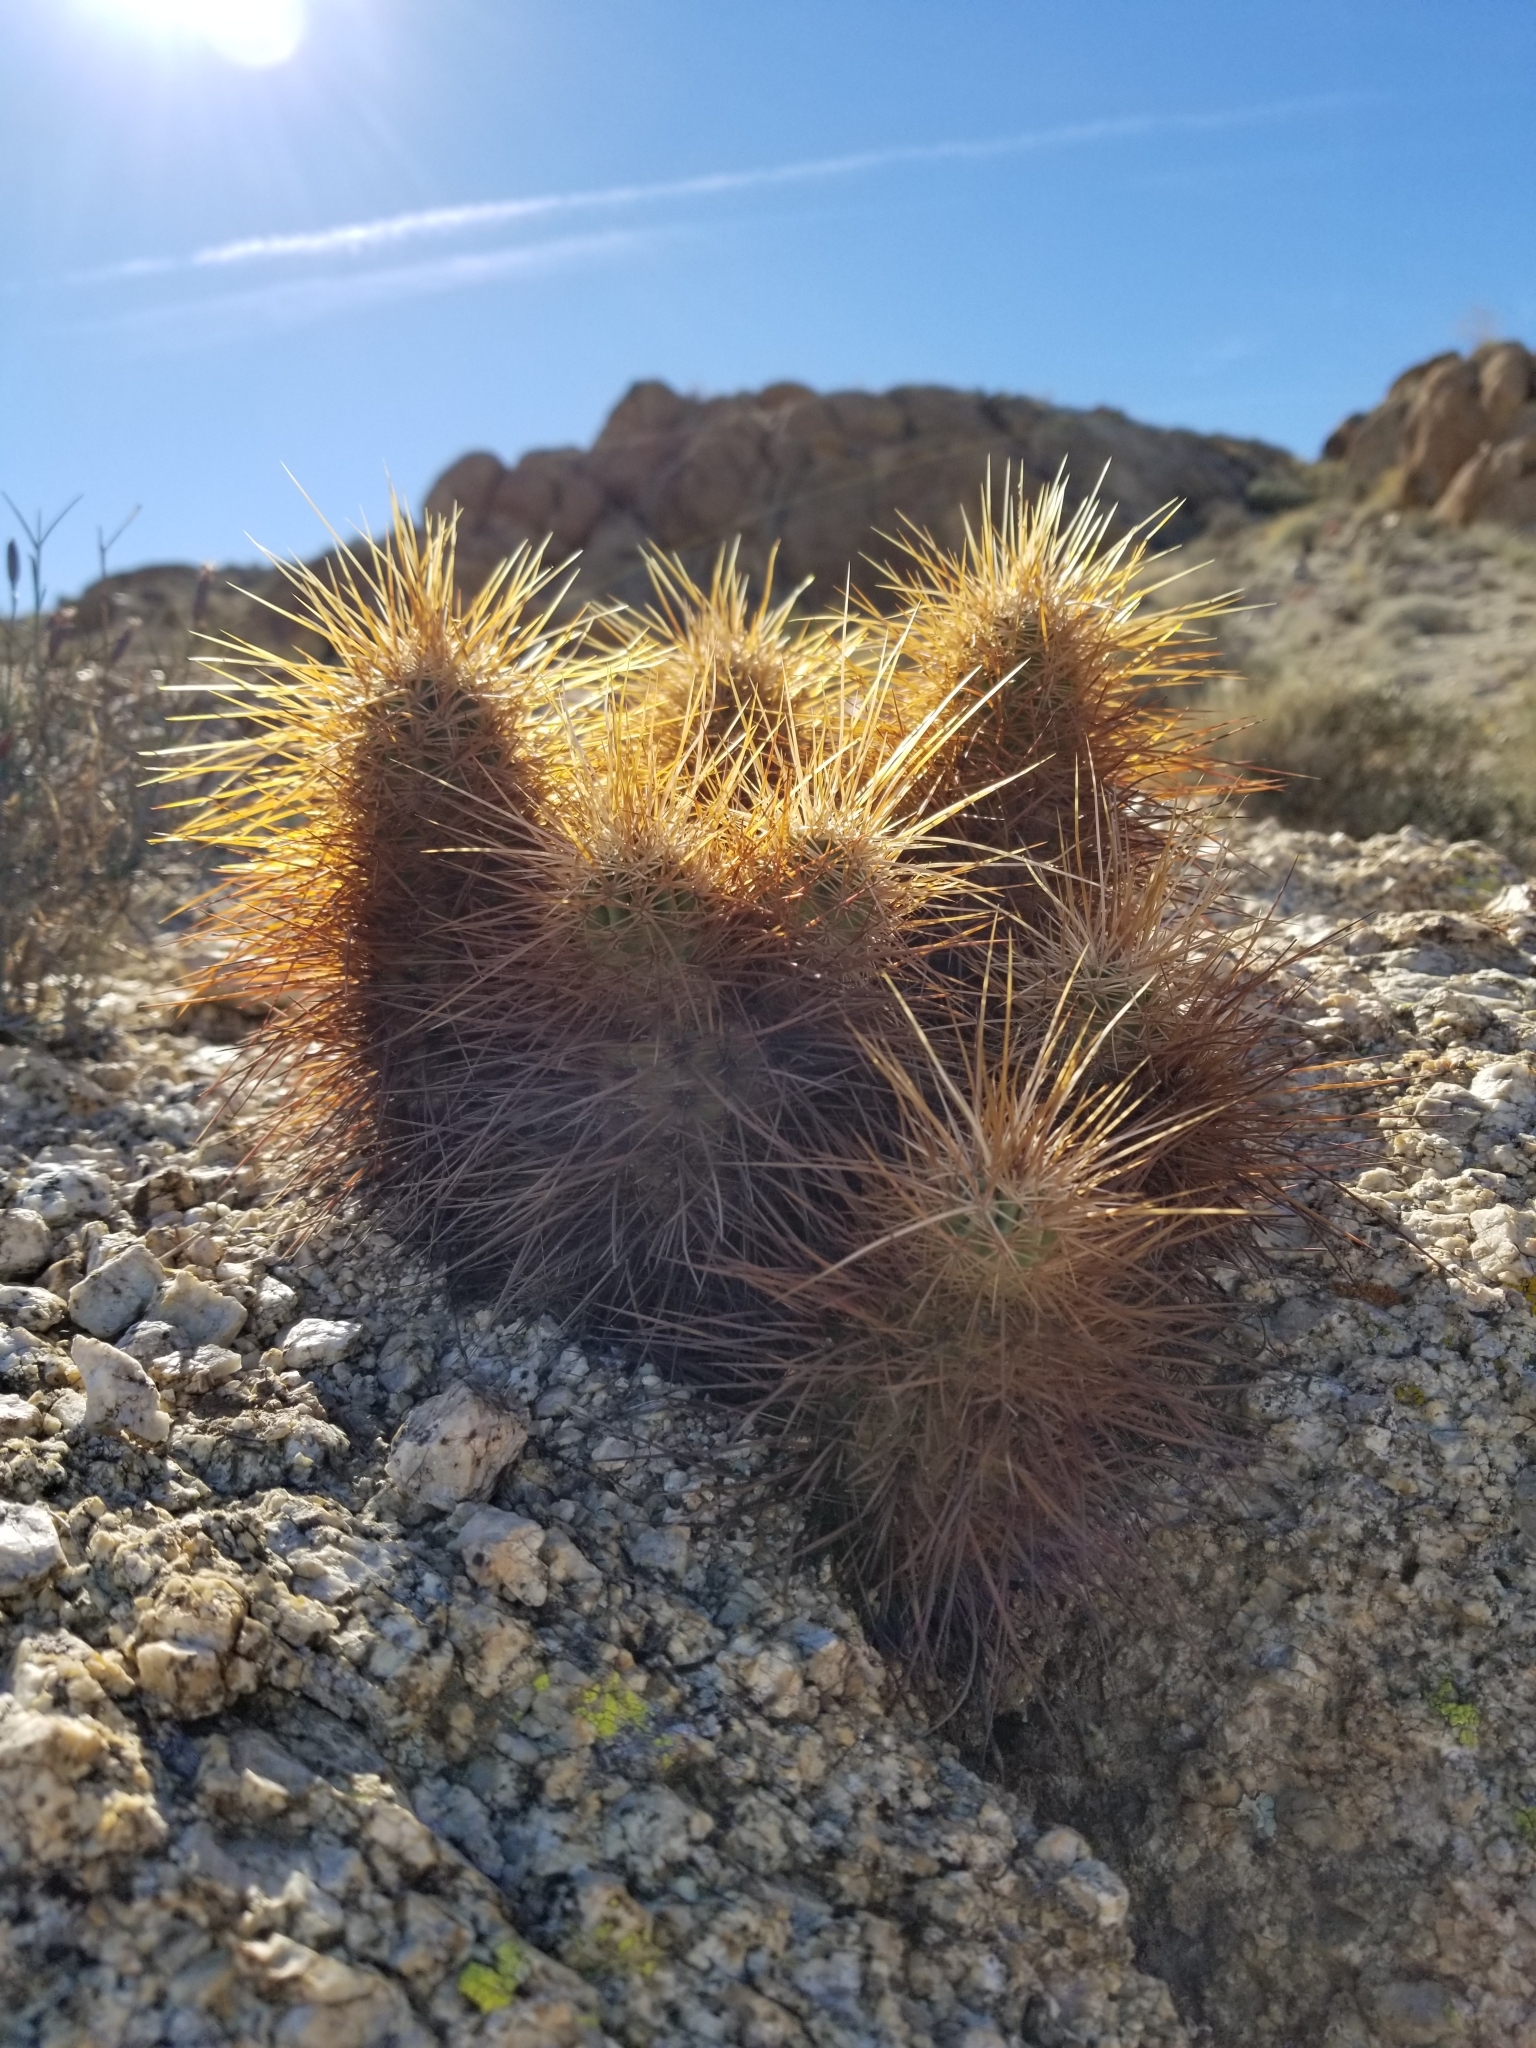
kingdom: Plantae
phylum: Tracheophyta
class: Magnoliopsida
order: Caryophyllales
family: Cactaceae
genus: Echinocereus
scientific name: Echinocereus engelmannii
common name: Engelmann's hedgehog cactus
